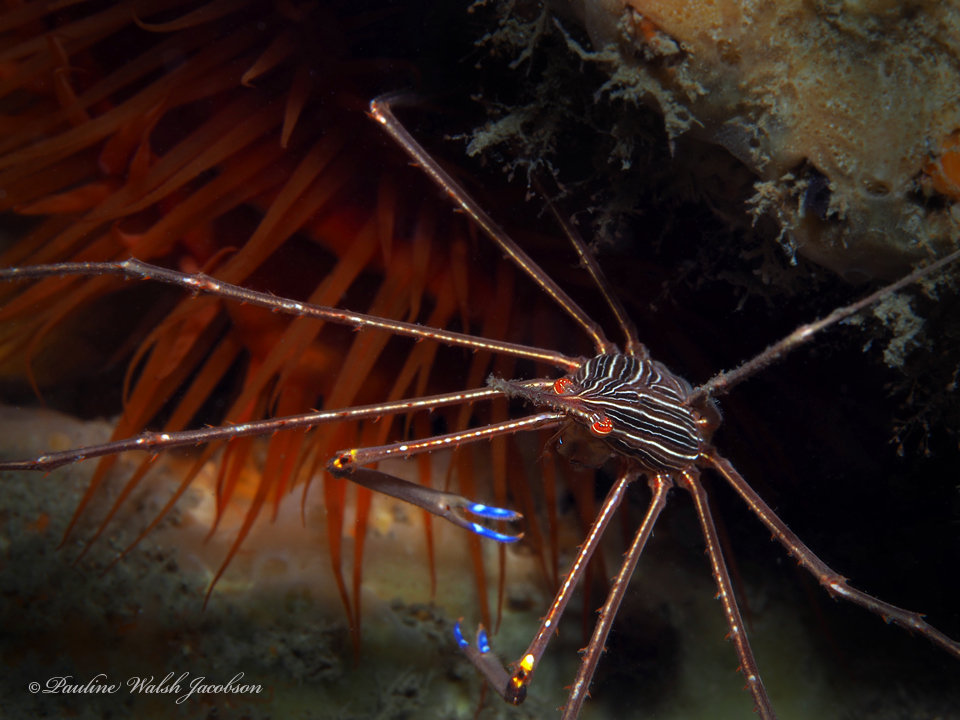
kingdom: Animalia
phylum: Arthropoda
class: Malacostraca
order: Decapoda
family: Inachoididae
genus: Stenorhynchus
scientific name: Stenorhynchus seticornis
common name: Arrow crab
